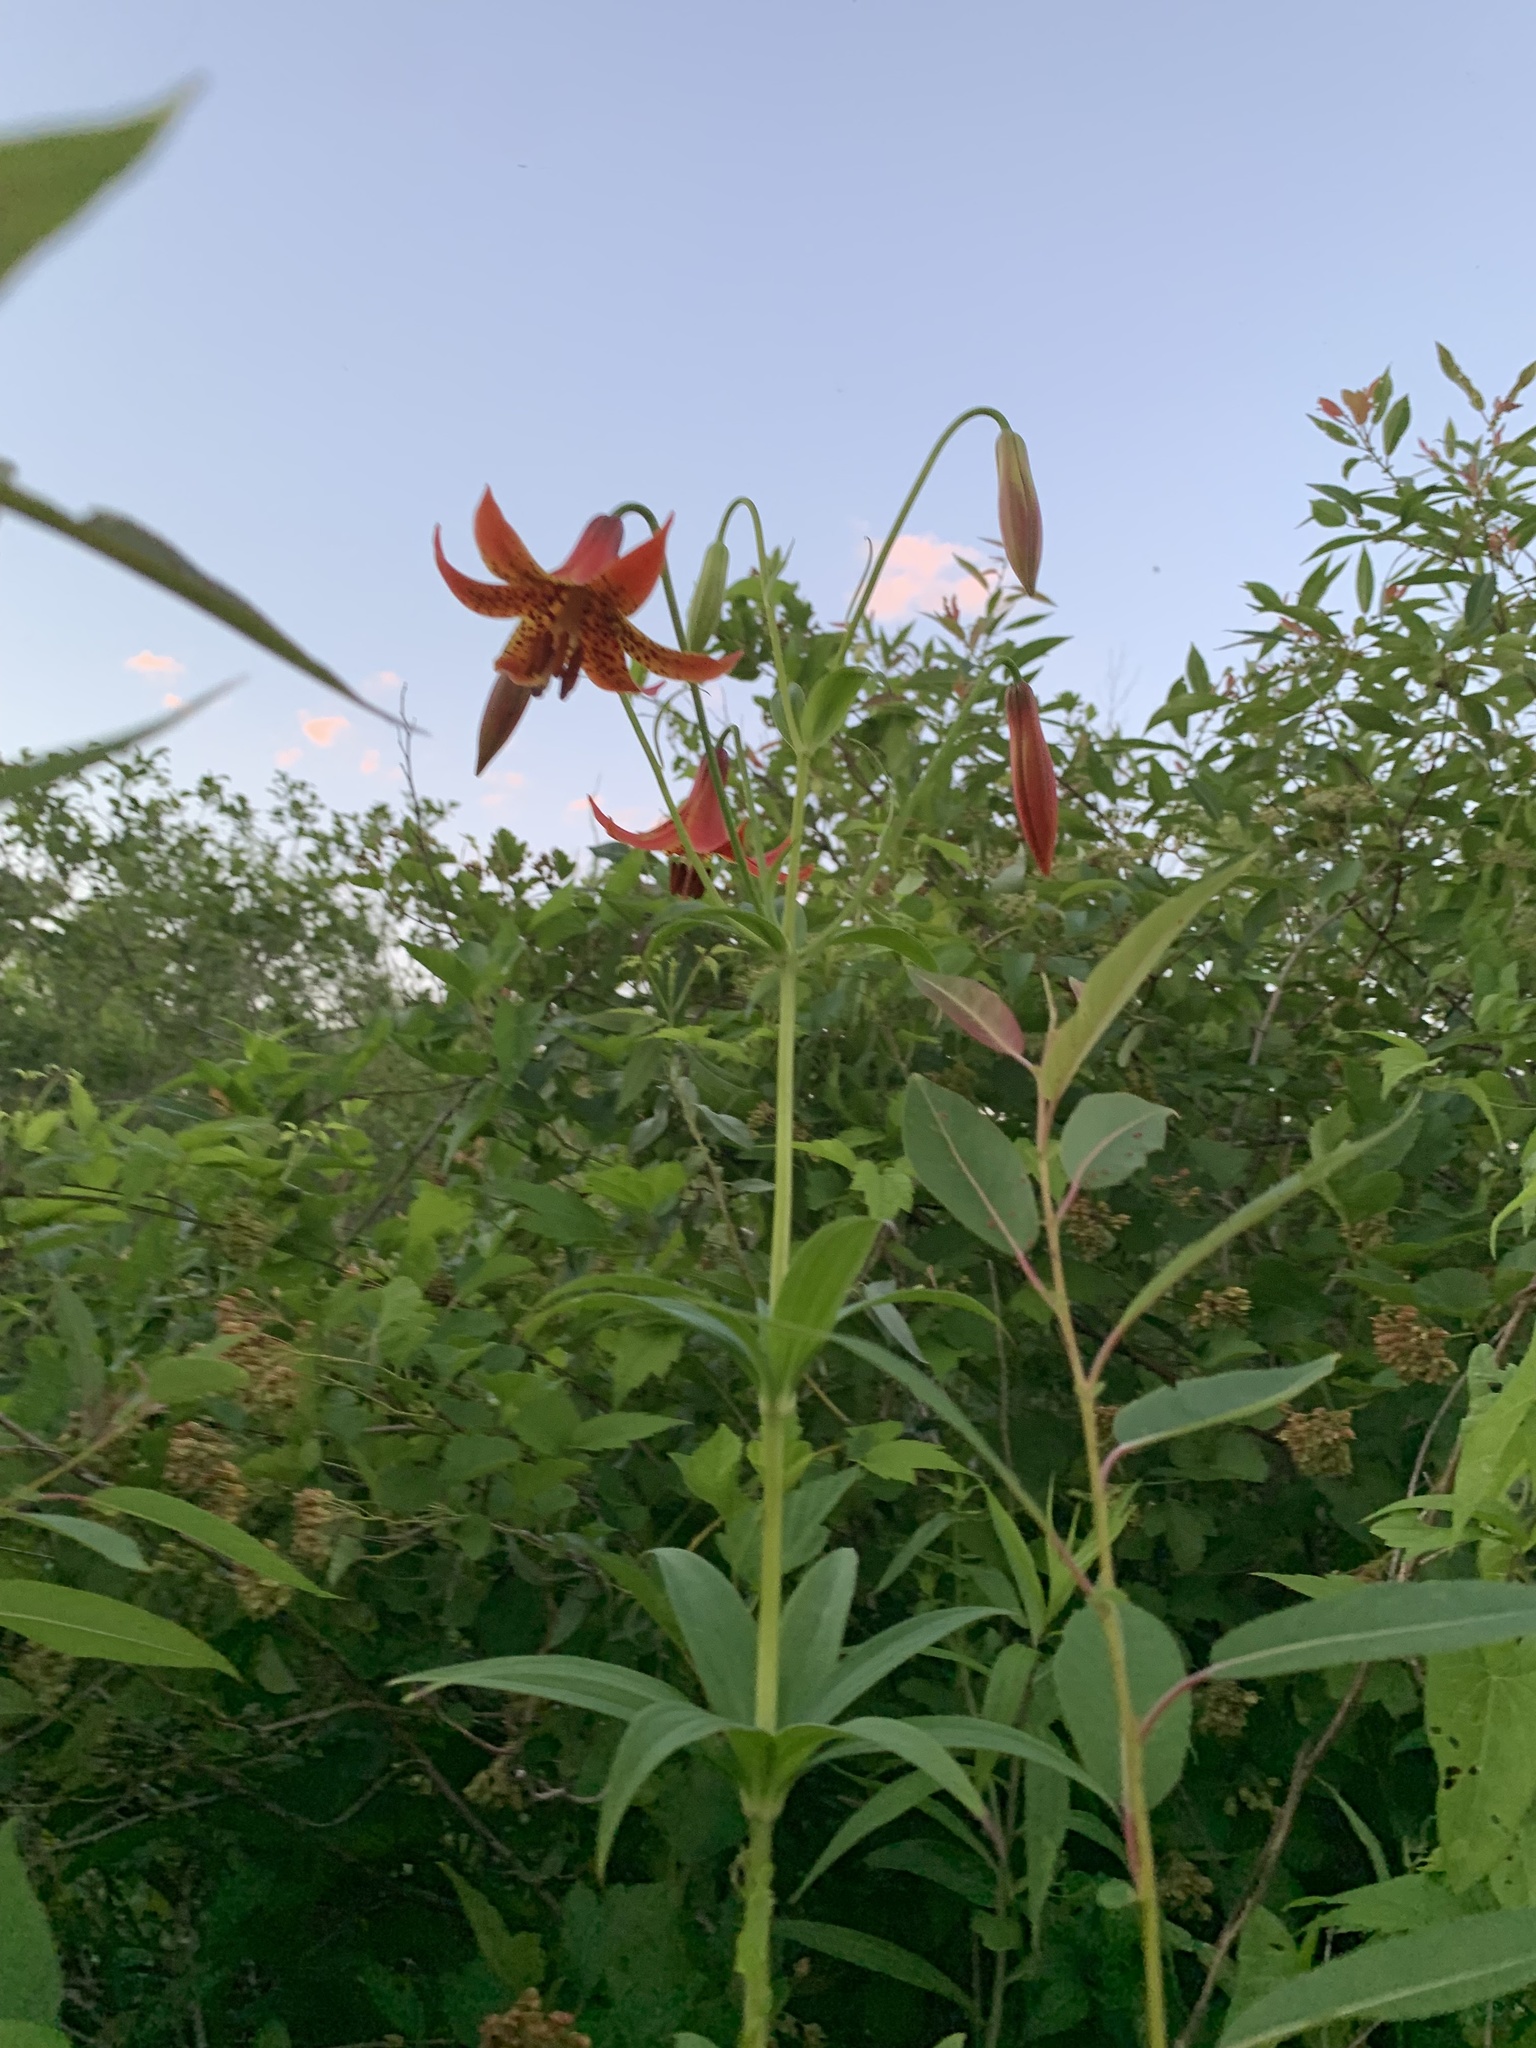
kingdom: Plantae
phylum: Tracheophyta
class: Liliopsida
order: Liliales
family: Liliaceae
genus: Lilium
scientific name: Lilium canadense
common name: Canada lily
